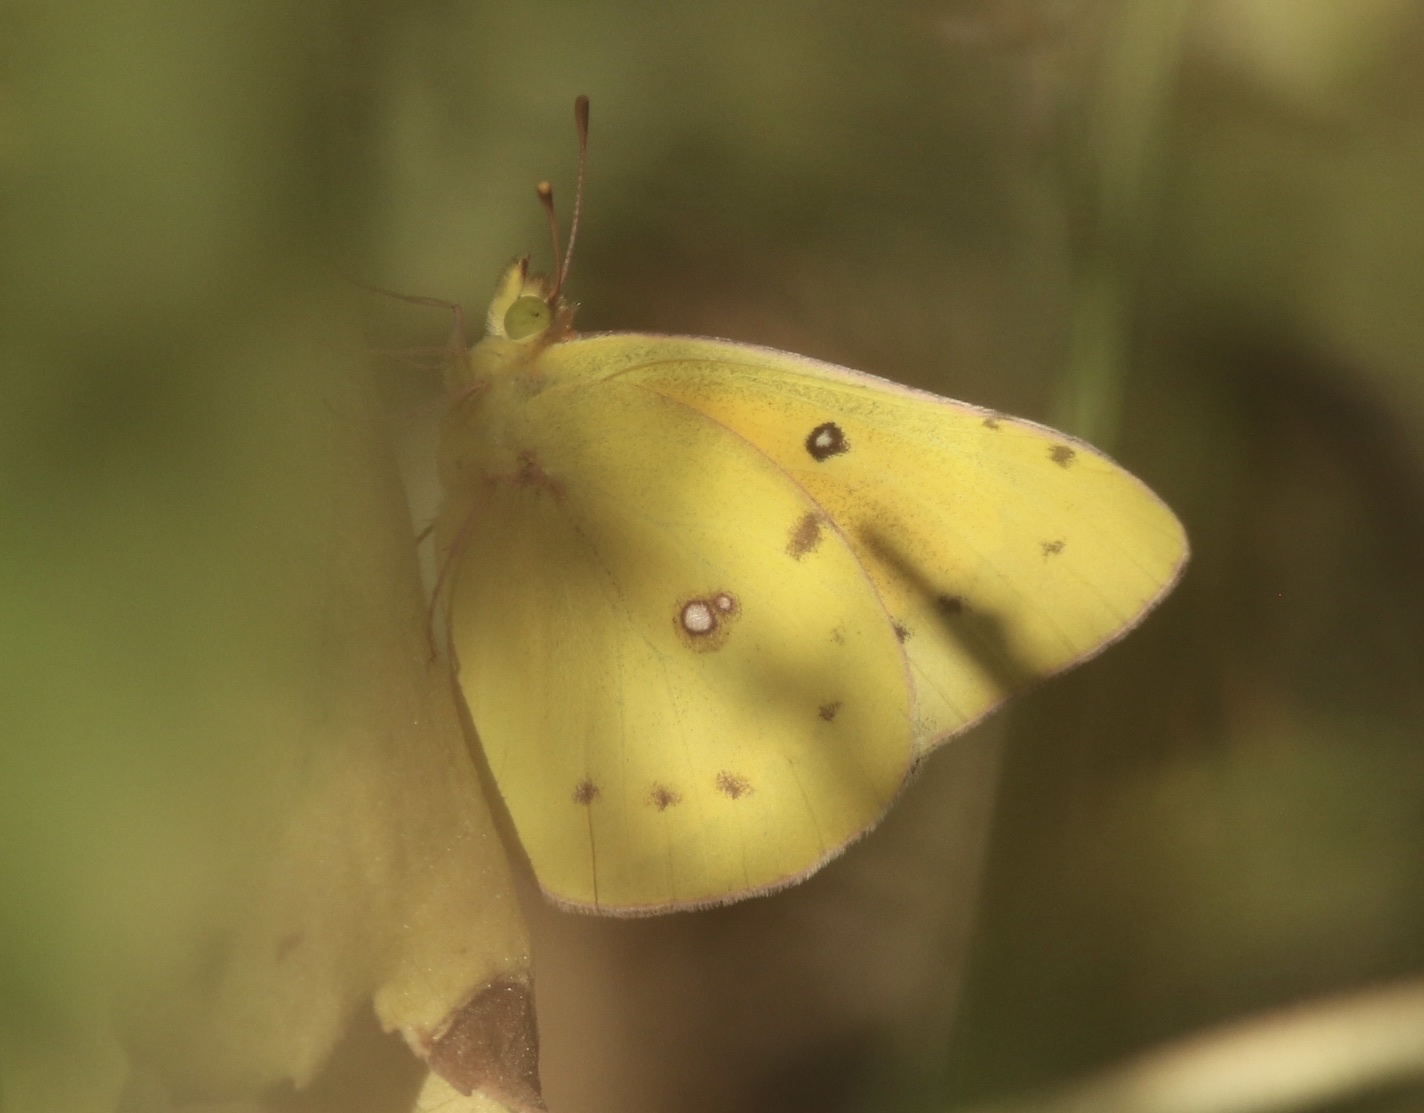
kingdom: Animalia
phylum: Arthropoda
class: Insecta
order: Lepidoptera
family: Pieridae
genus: Colias
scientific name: Colias eurytheme
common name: Alfalfa butterfly
